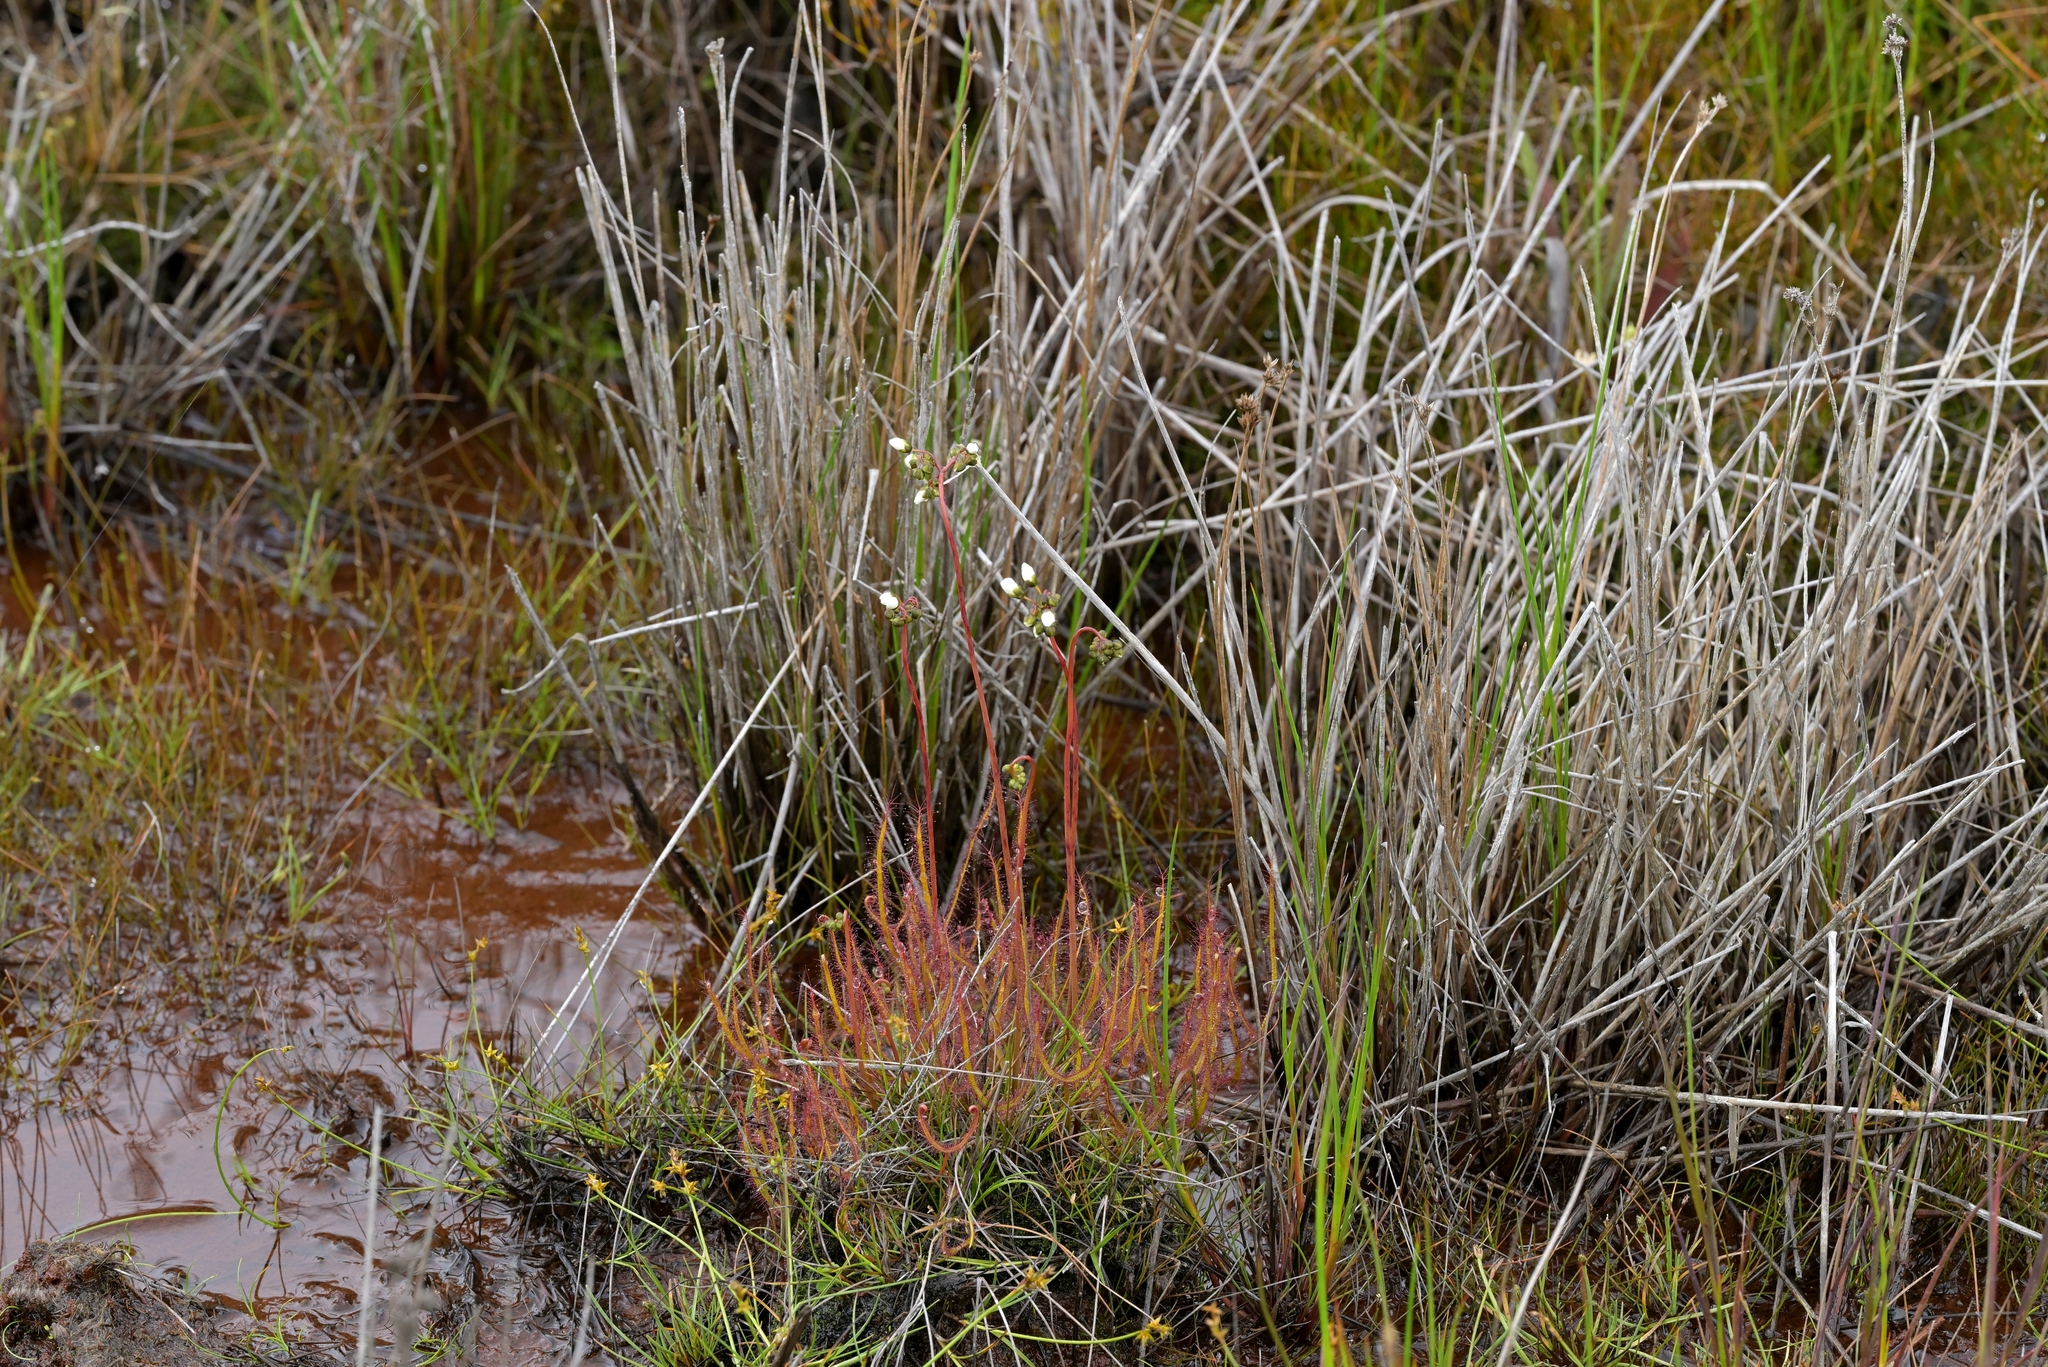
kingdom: Plantae
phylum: Tracheophyta
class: Magnoliopsida
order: Caryophyllales
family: Droseraceae
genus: Drosera
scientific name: Drosera binata
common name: Forked sundew
